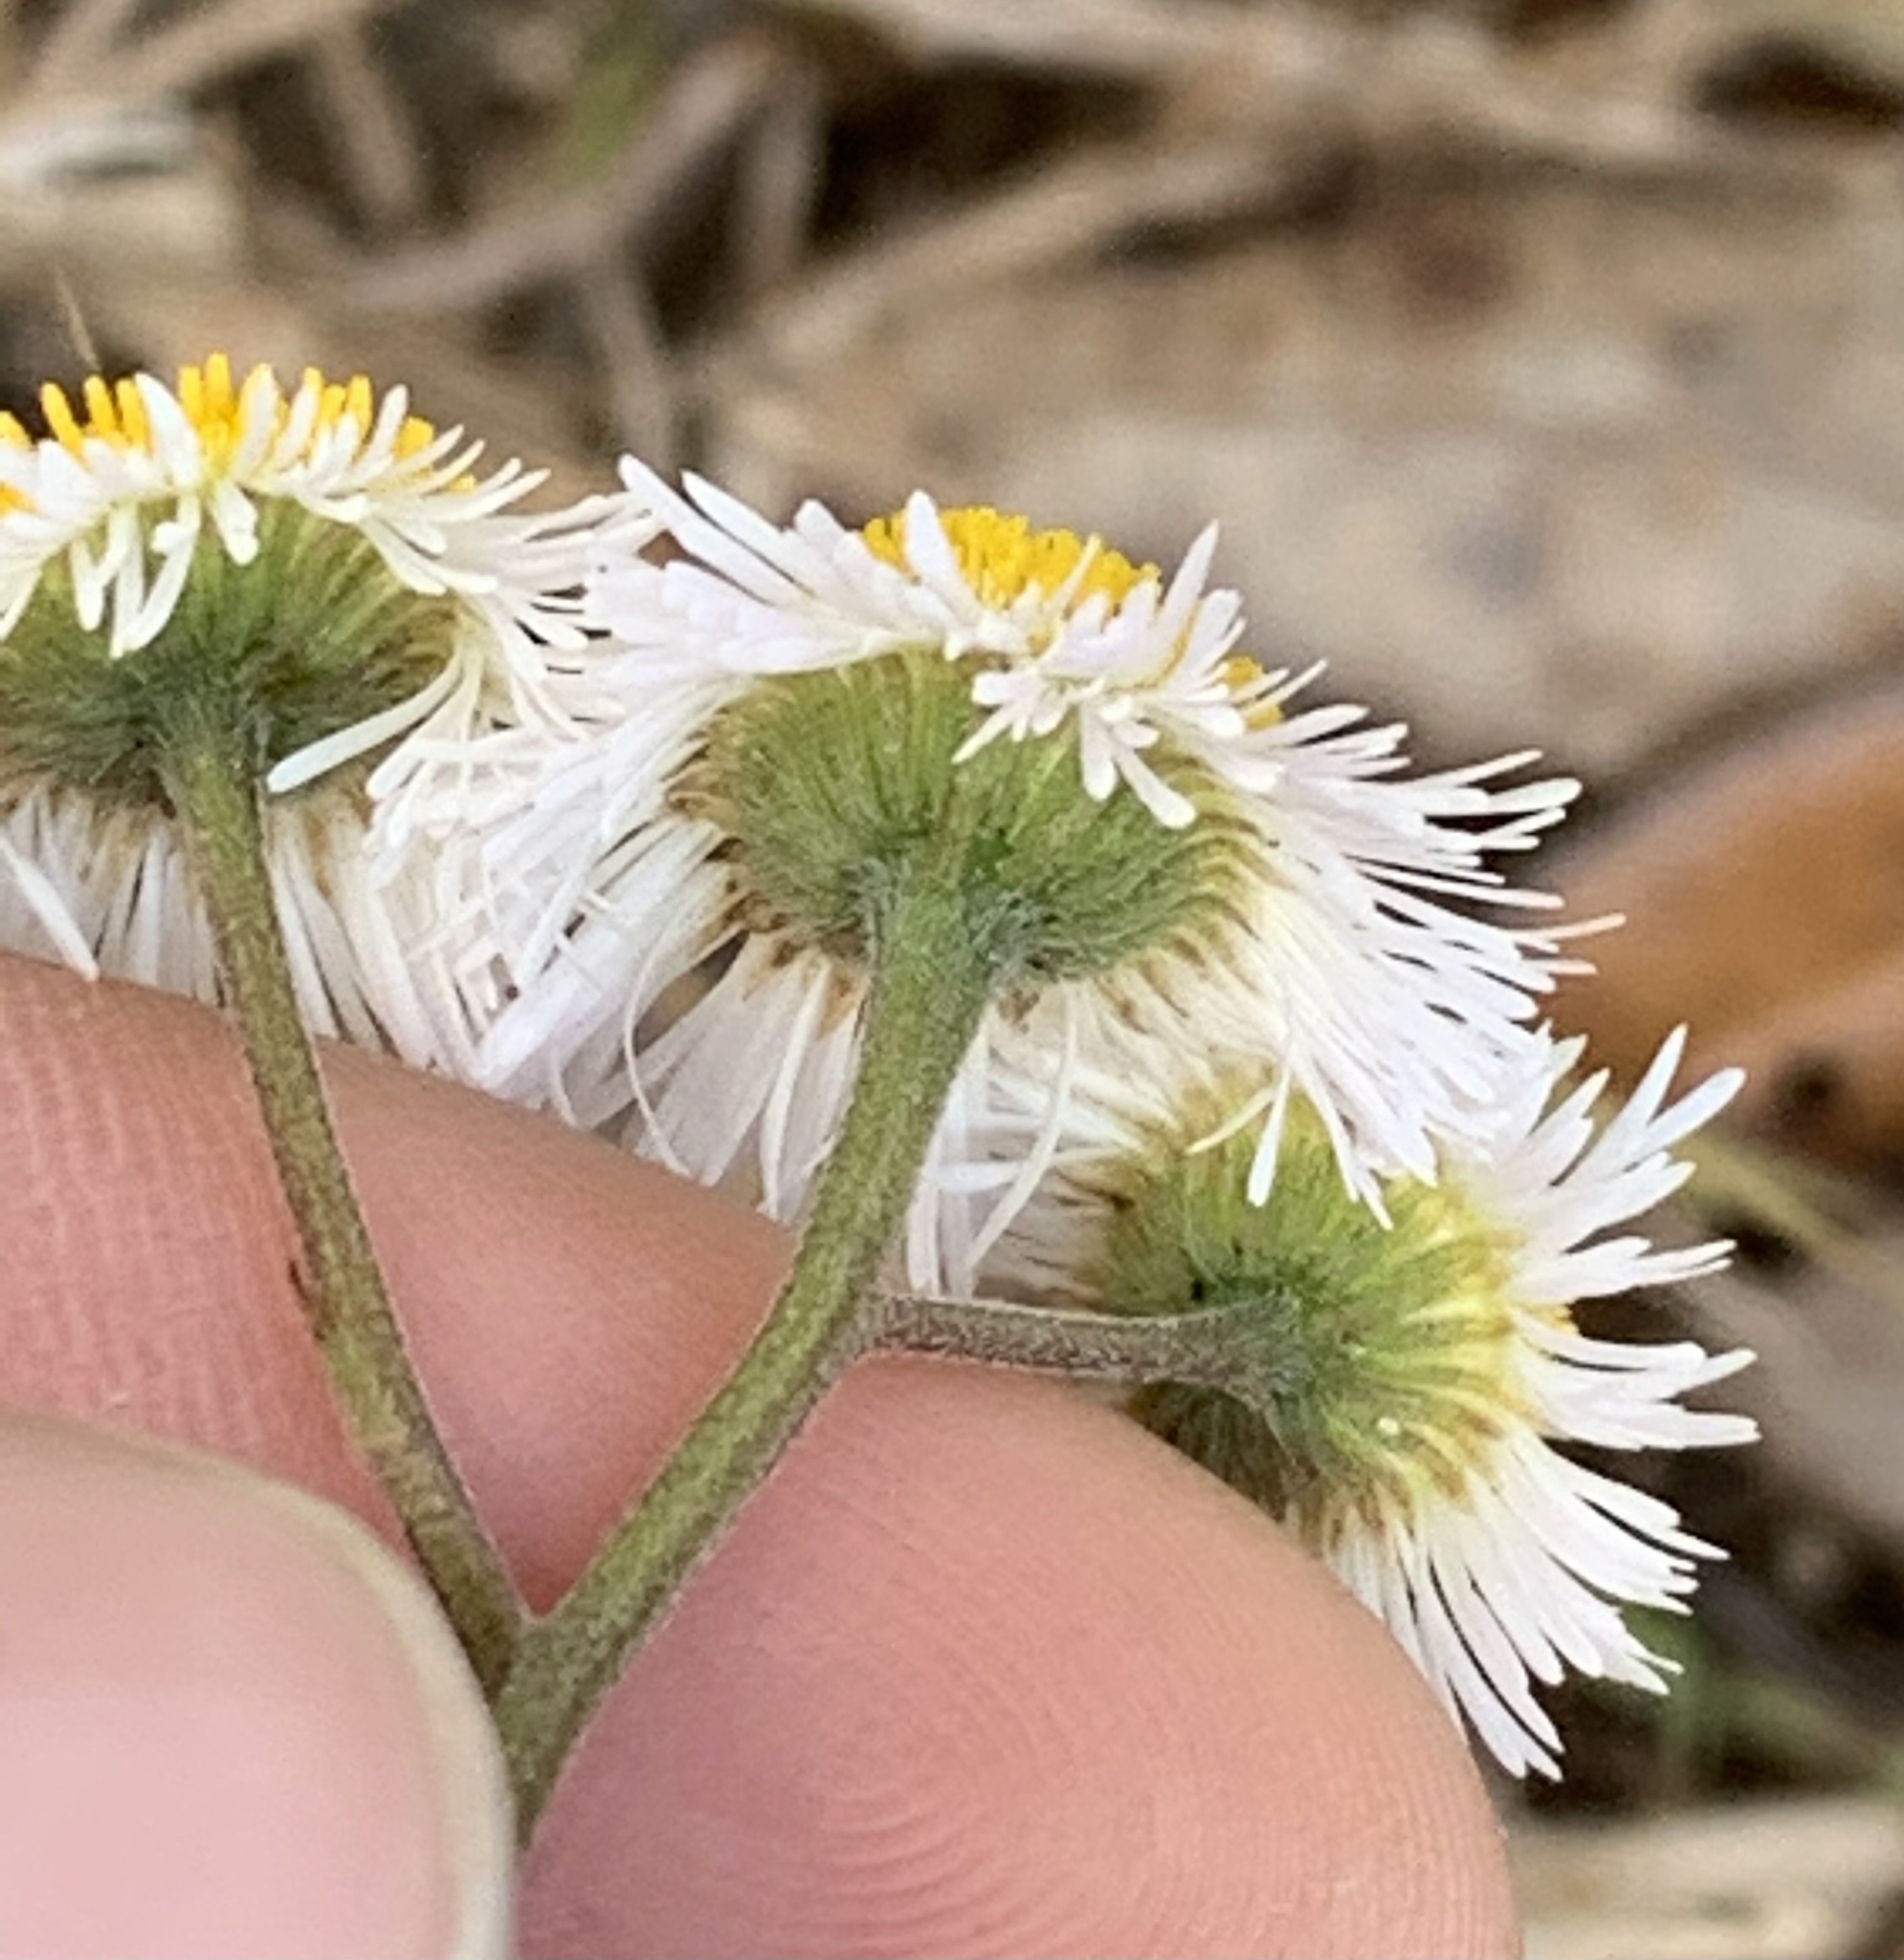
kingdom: Plantae
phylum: Tracheophyta
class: Magnoliopsida
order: Asterales
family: Asteraceae
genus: Erigeron
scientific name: Erigeron quercifolius
